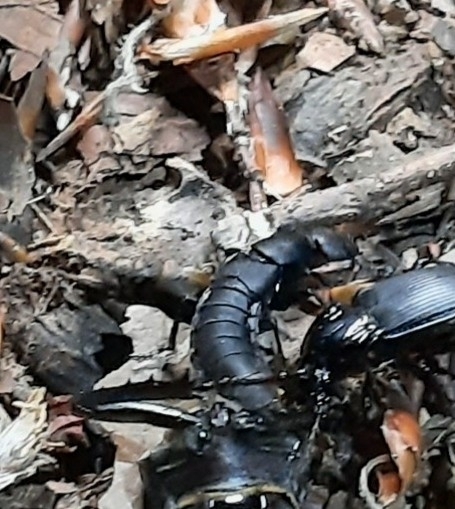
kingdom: Animalia
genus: Matidus
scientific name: Matidus
